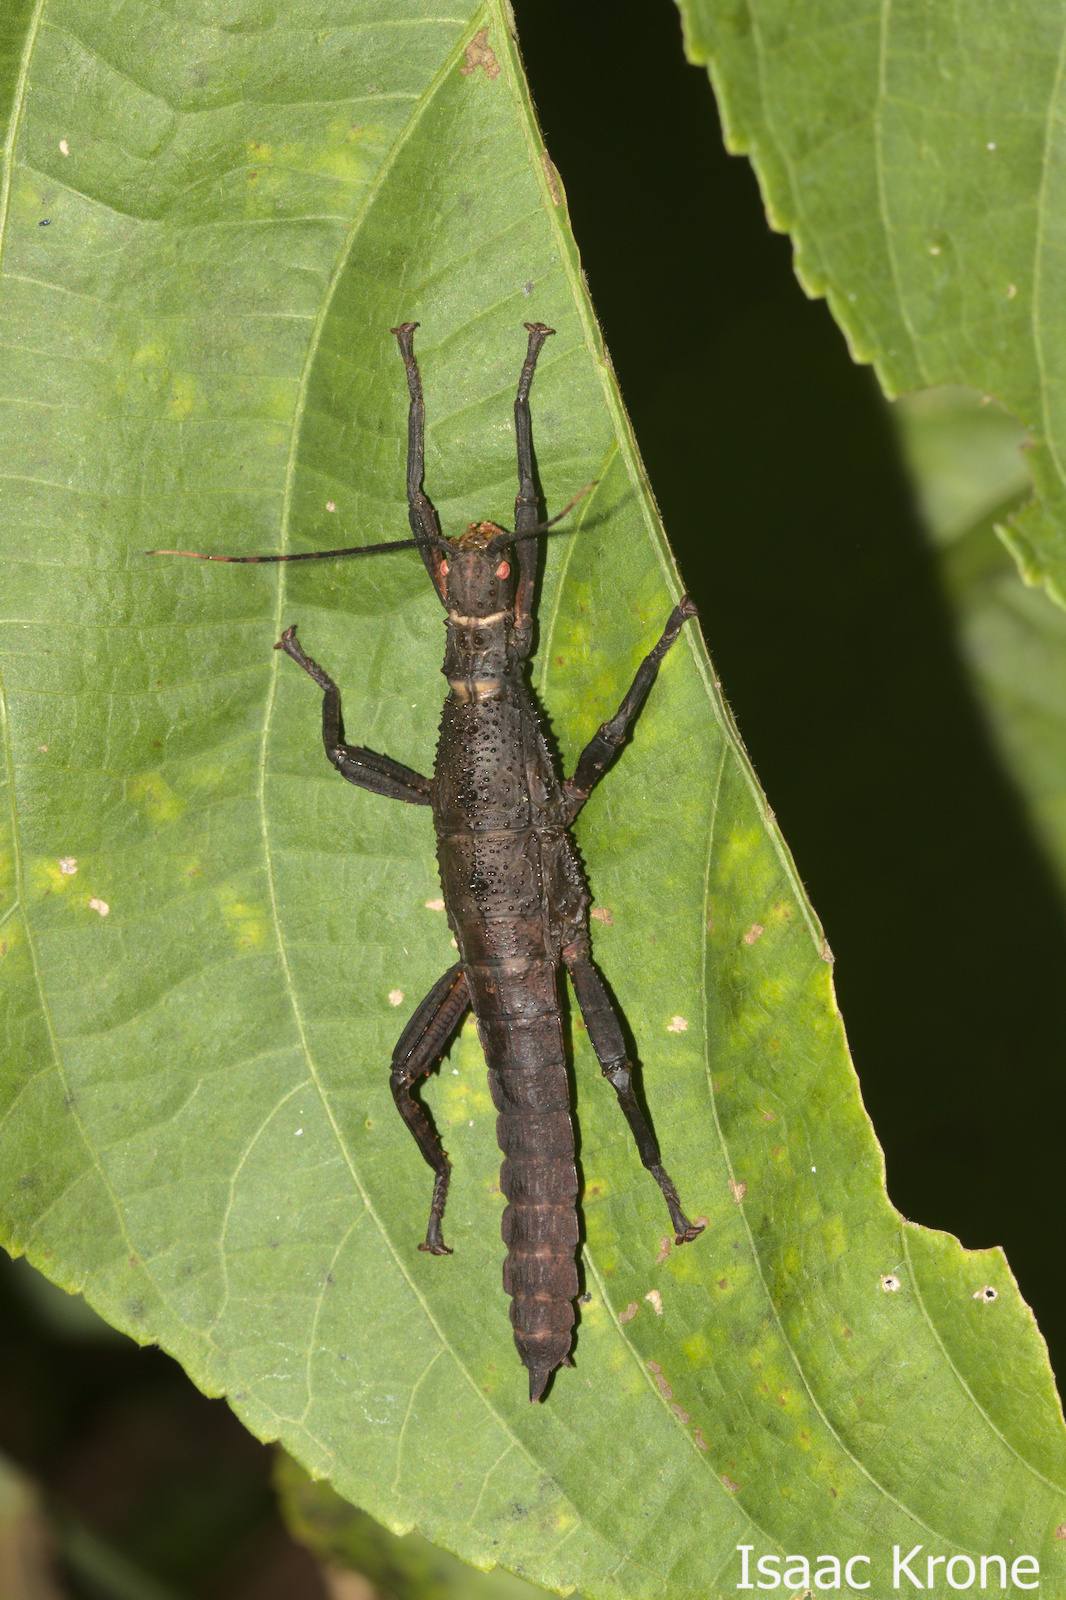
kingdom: Animalia
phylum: Arthropoda
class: Insecta
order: Phasmida
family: Heteropterygidae
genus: Theramenes
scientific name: Theramenes olivaceus
